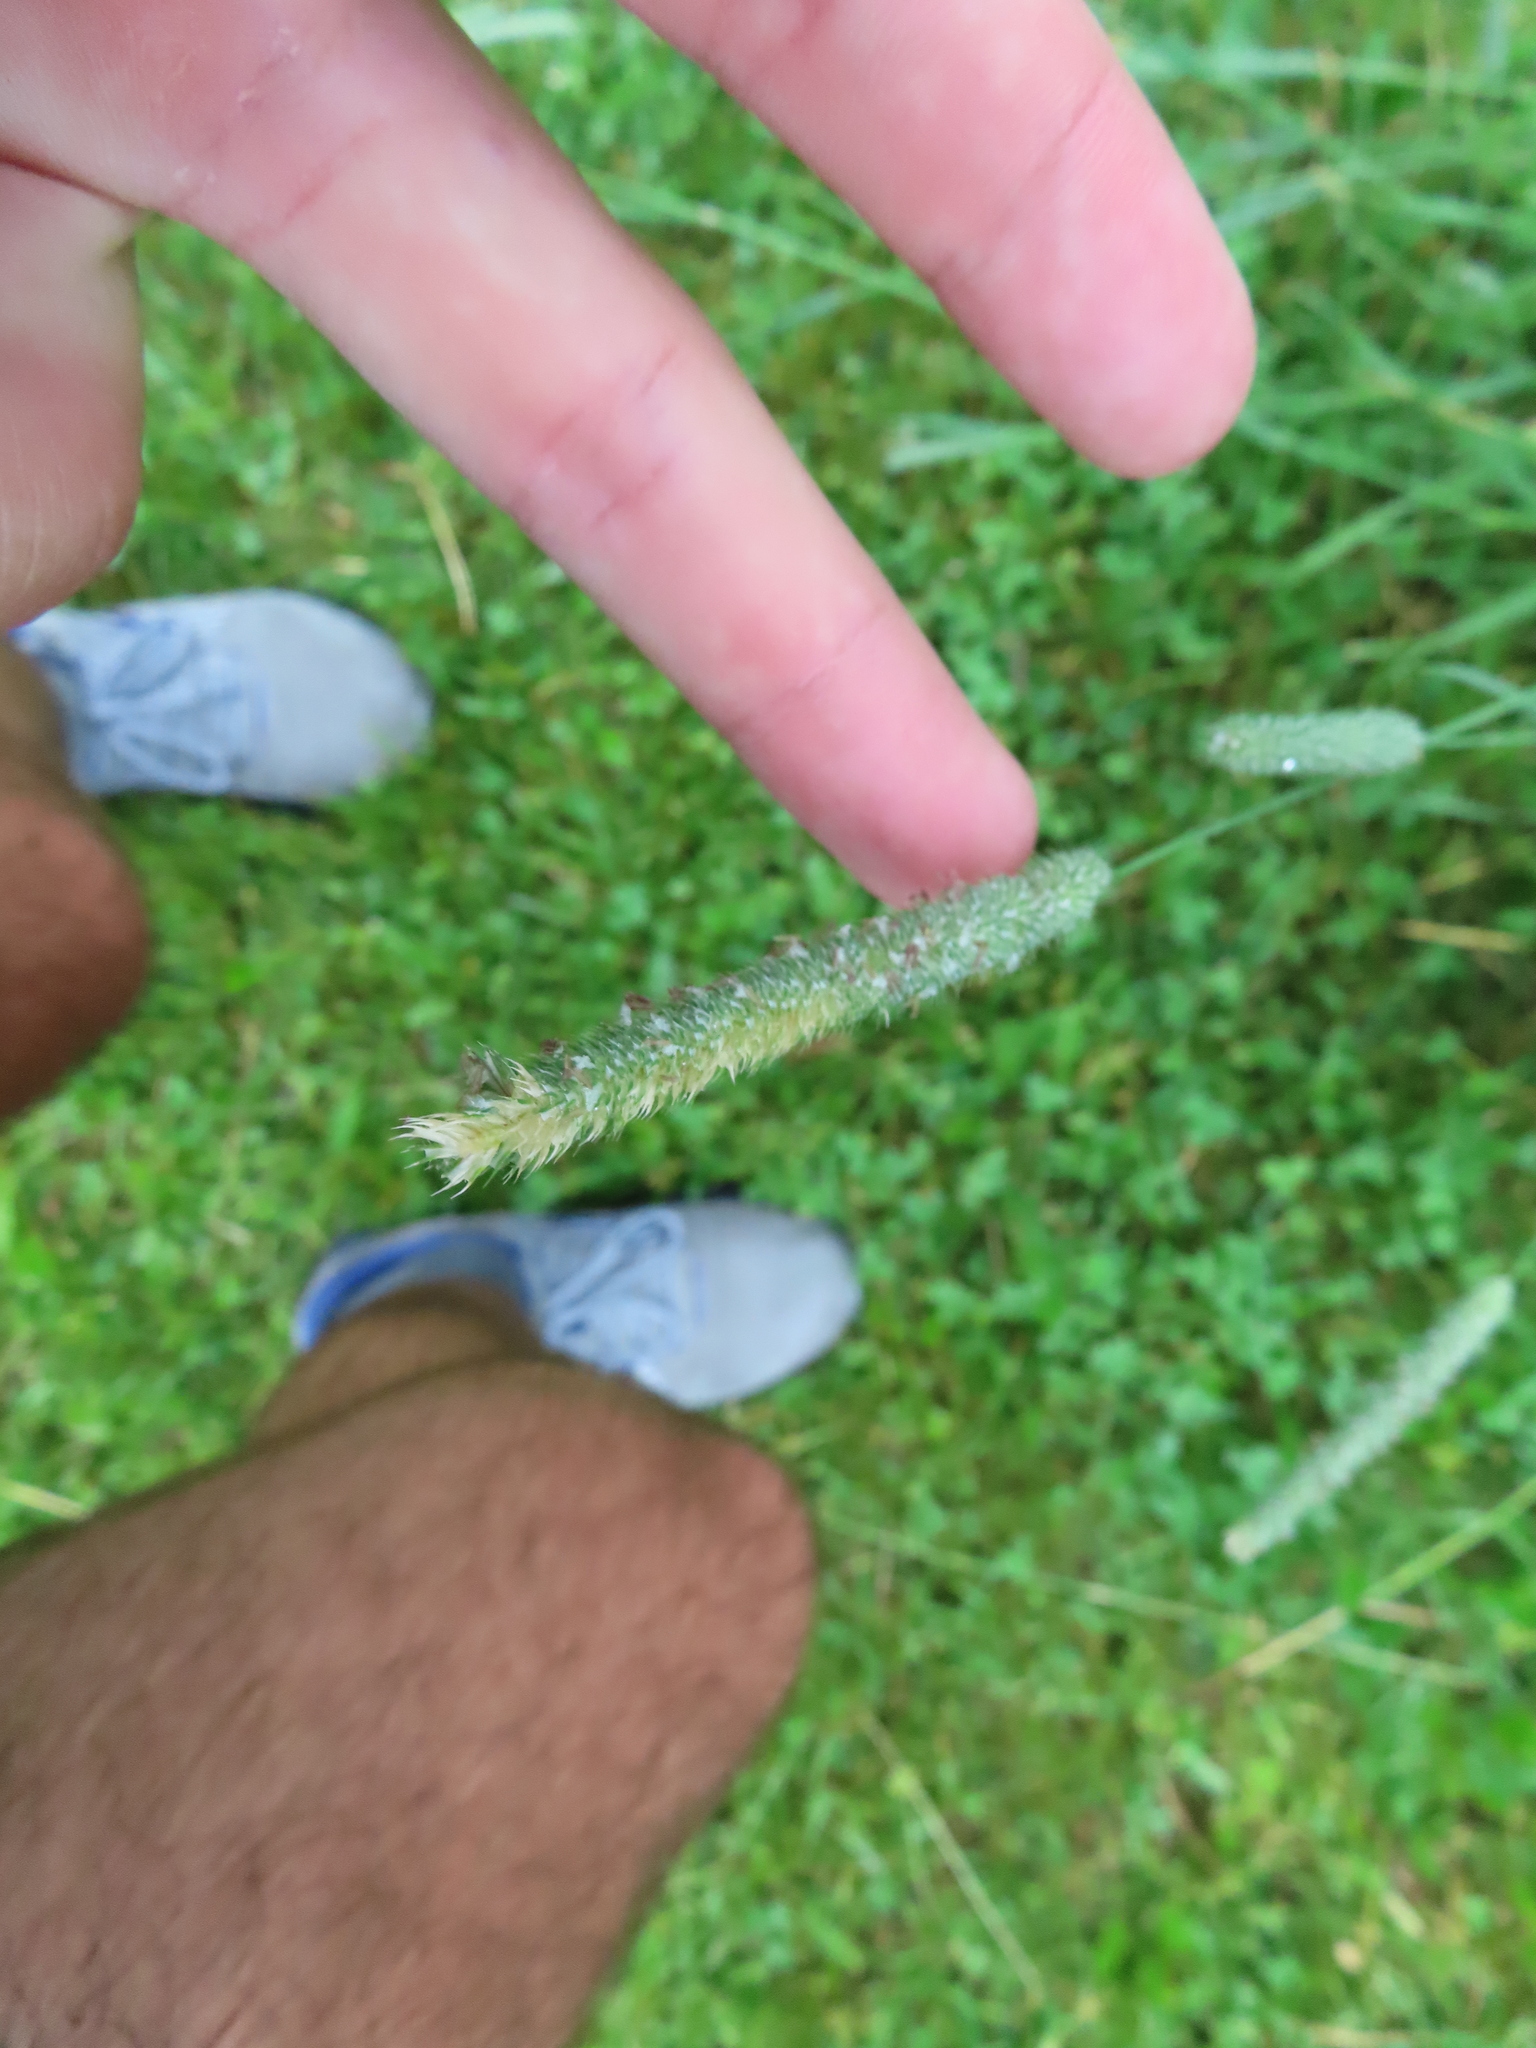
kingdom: Plantae
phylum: Tracheophyta
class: Liliopsida
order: Poales
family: Poaceae
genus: Phleum
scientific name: Phleum pratense
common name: Timothy grass
